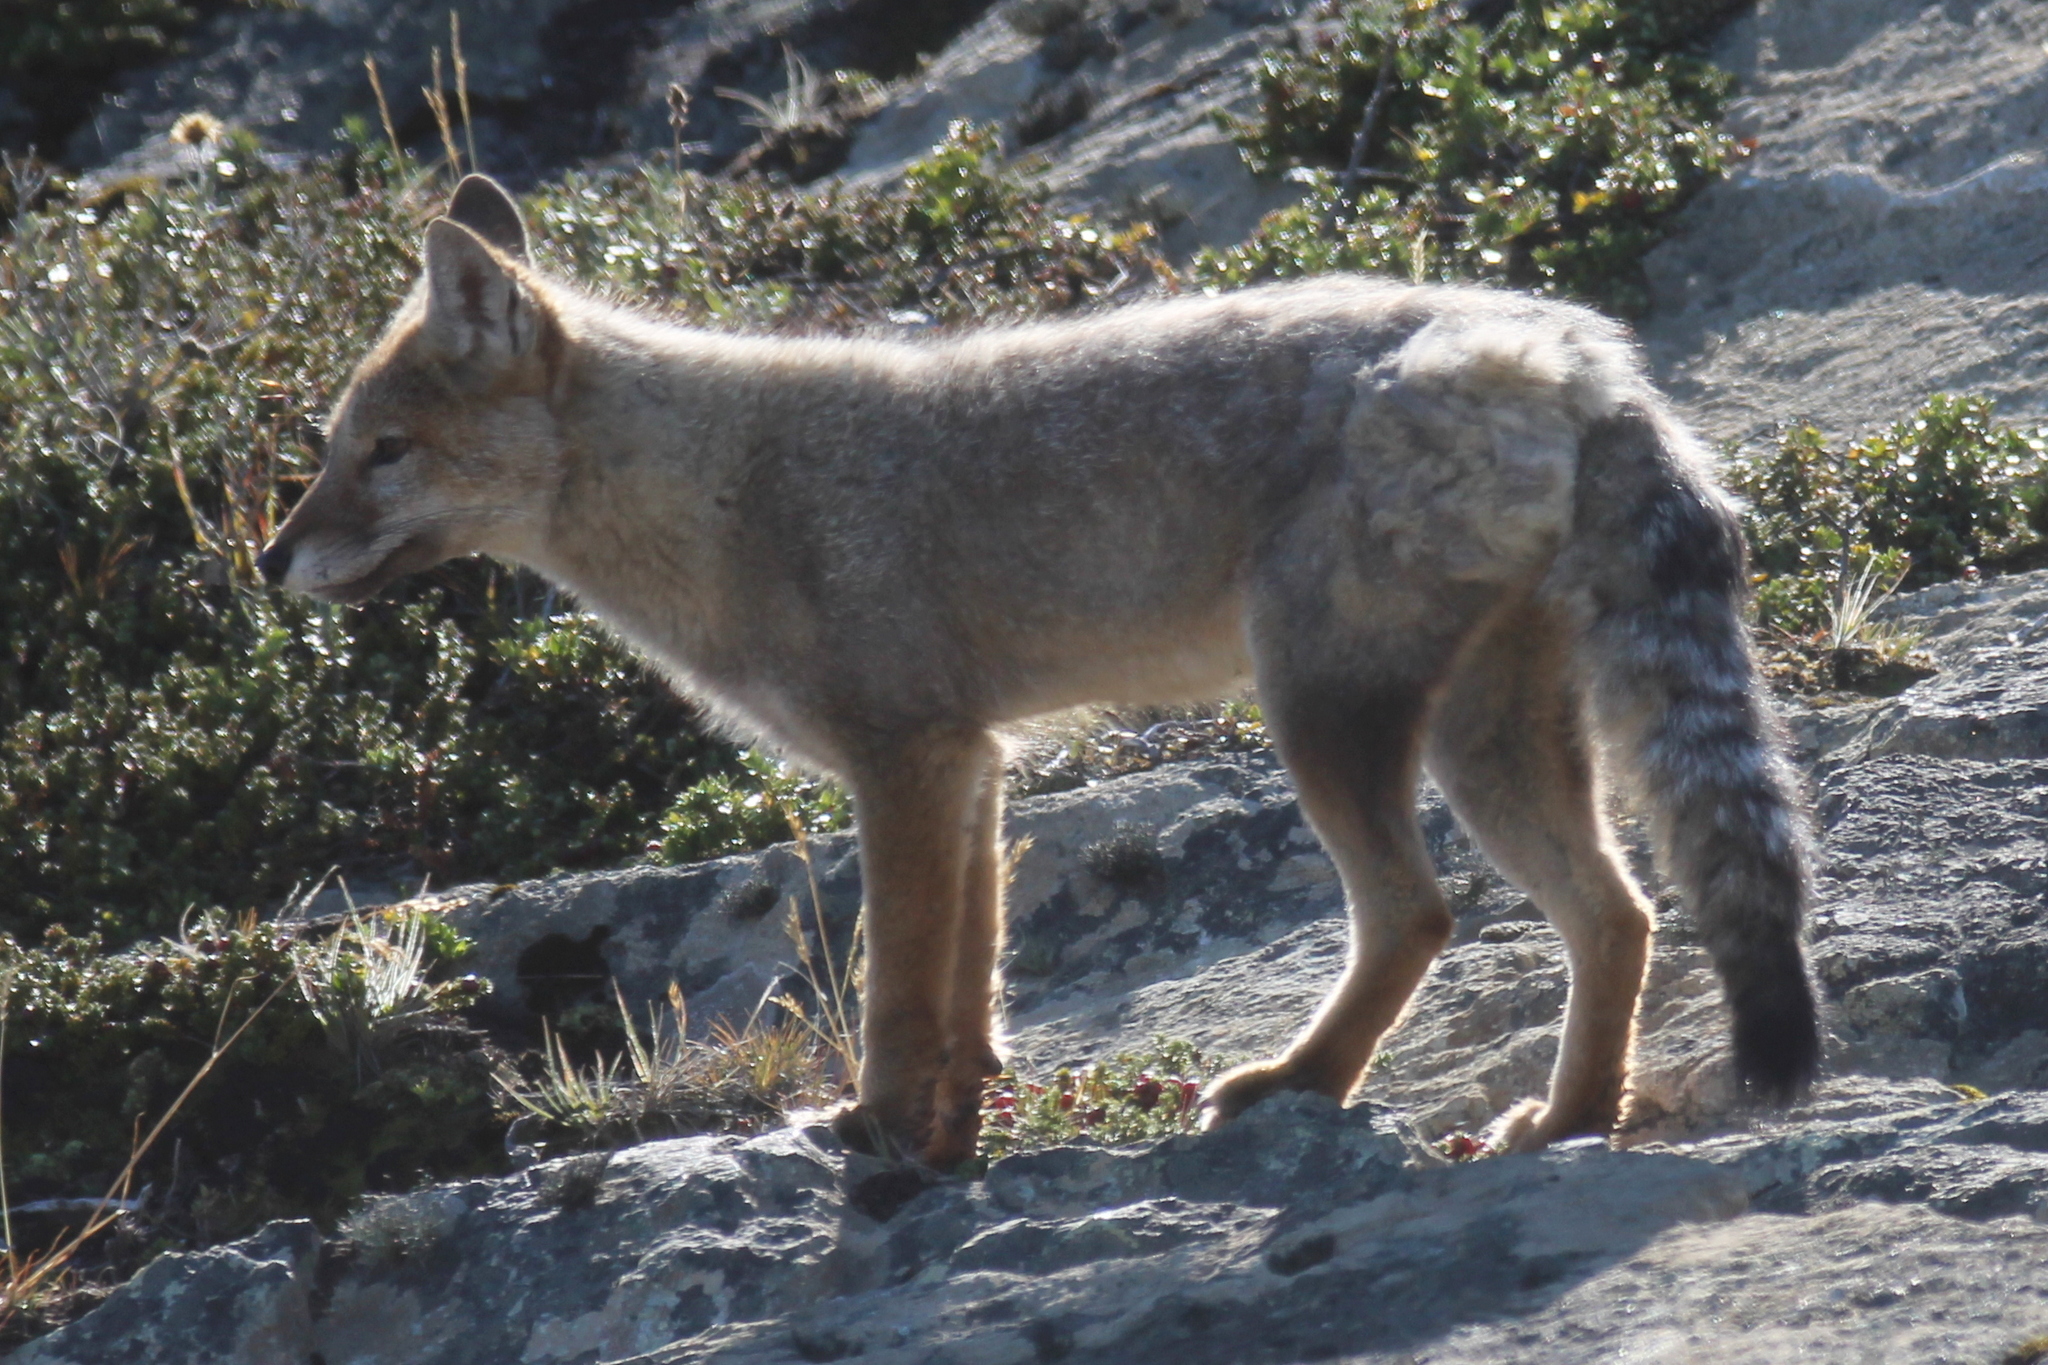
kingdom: Animalia
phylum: Chordata
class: Mammalia
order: Carnivora
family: Canidae
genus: Lycalopex
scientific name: Lycalopex gymnocercus
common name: Pampas fox
